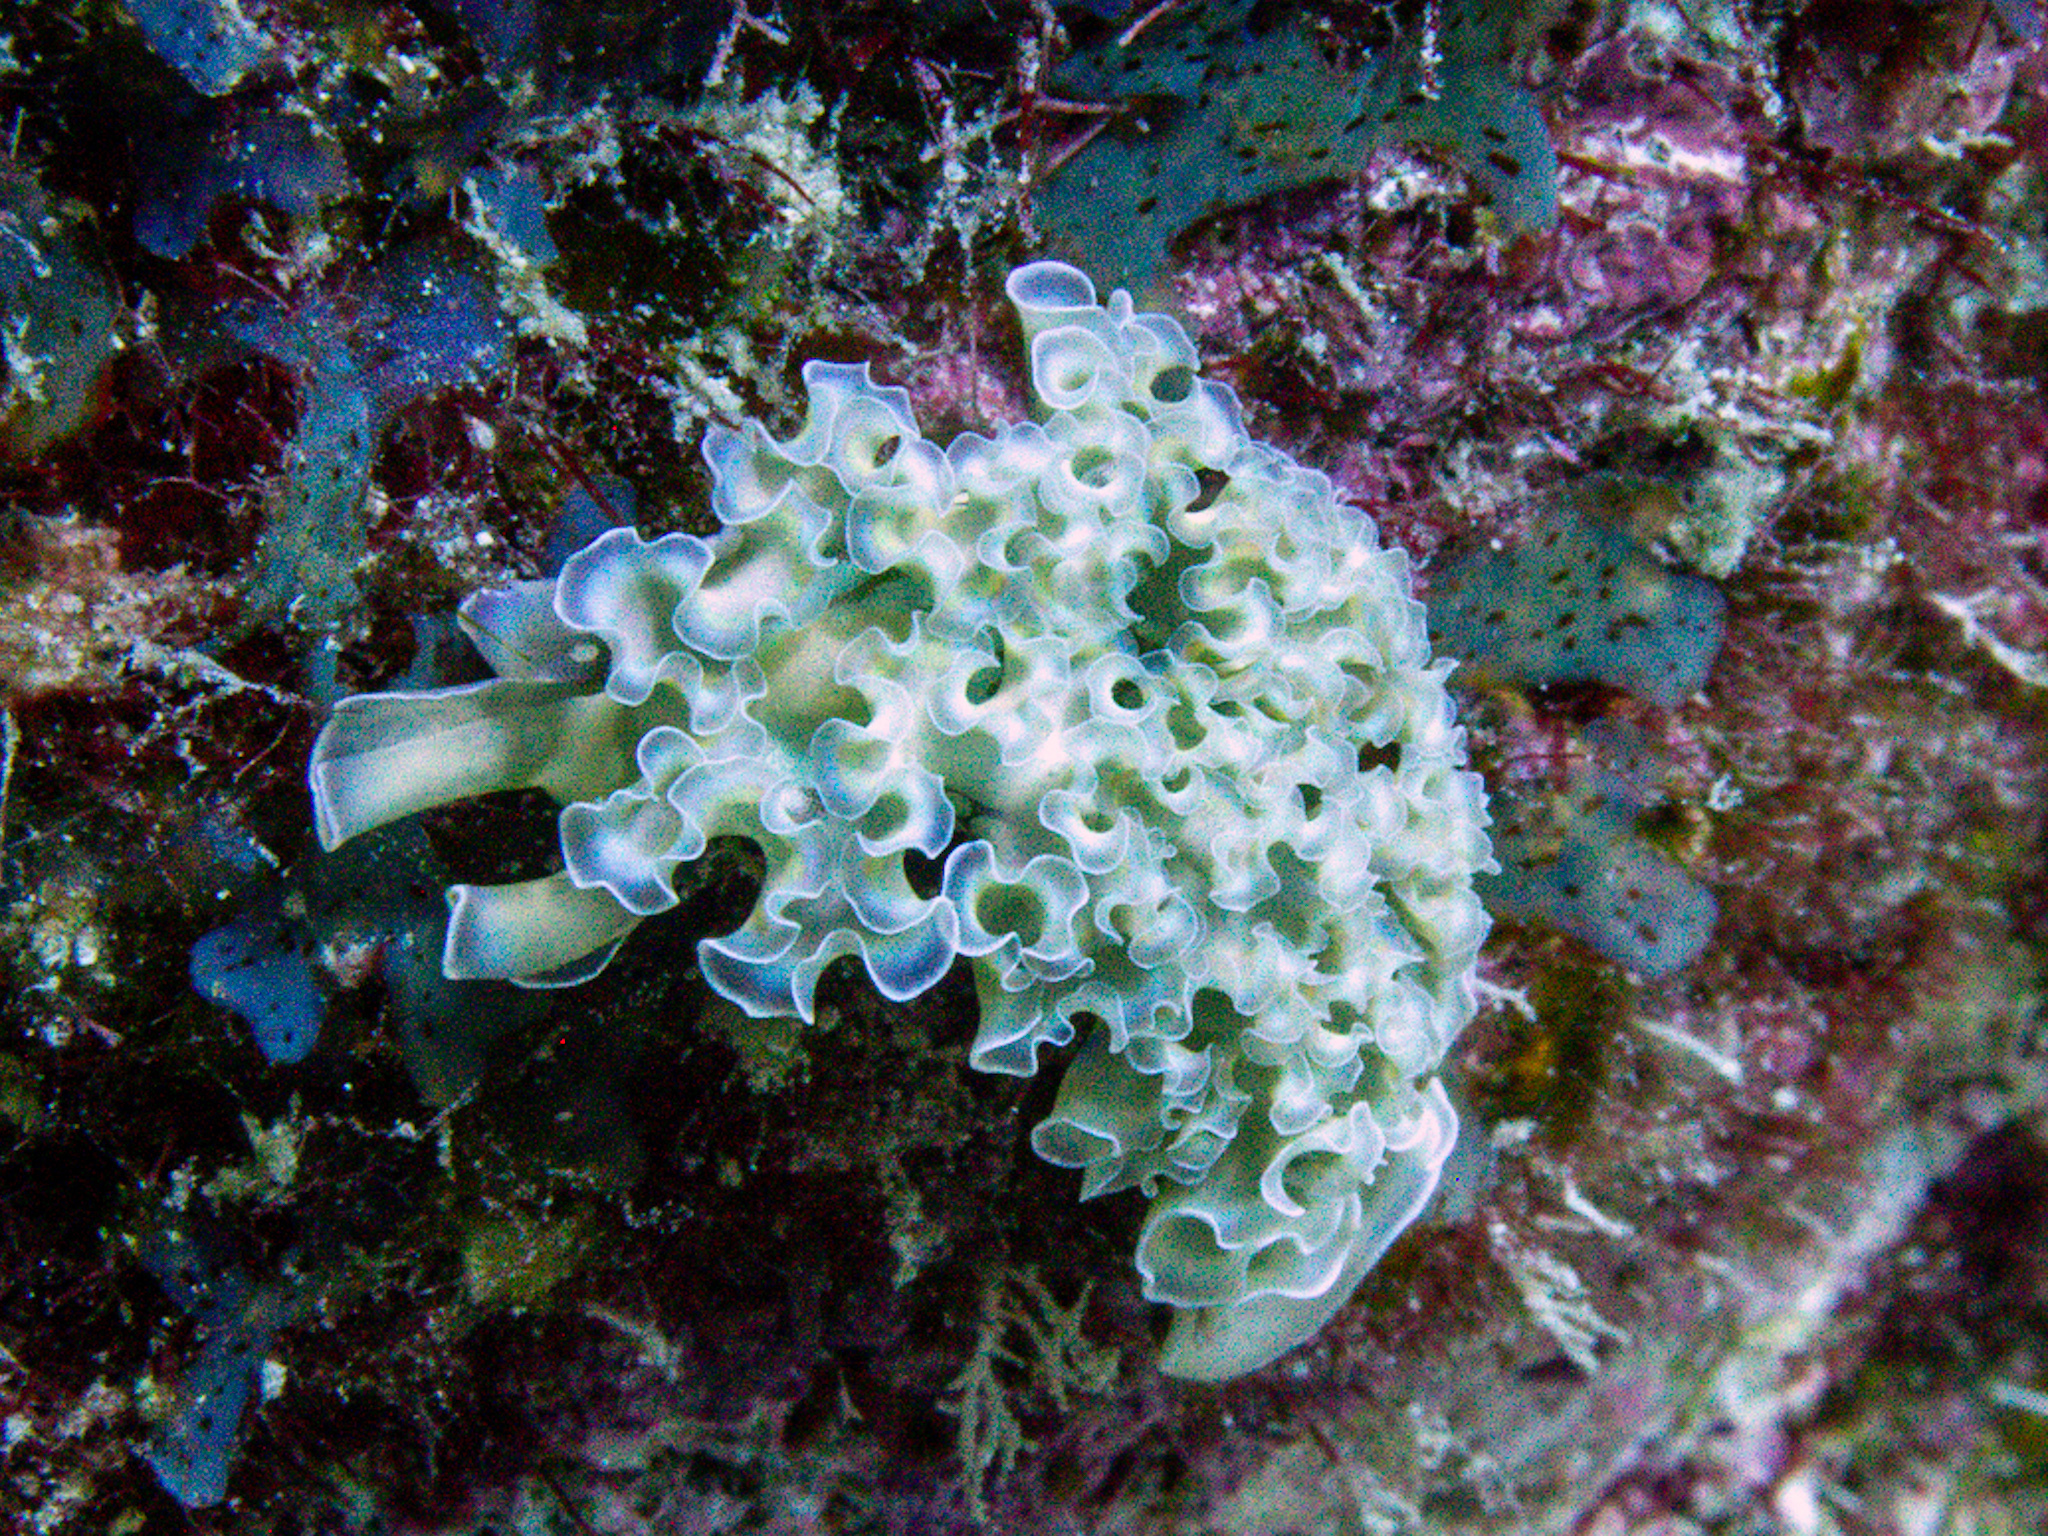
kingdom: Animalia
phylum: Mollusca
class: Gastropoda
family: Plakobranchidae
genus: Elysia
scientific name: Elysia crispata
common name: Lettuce slug
